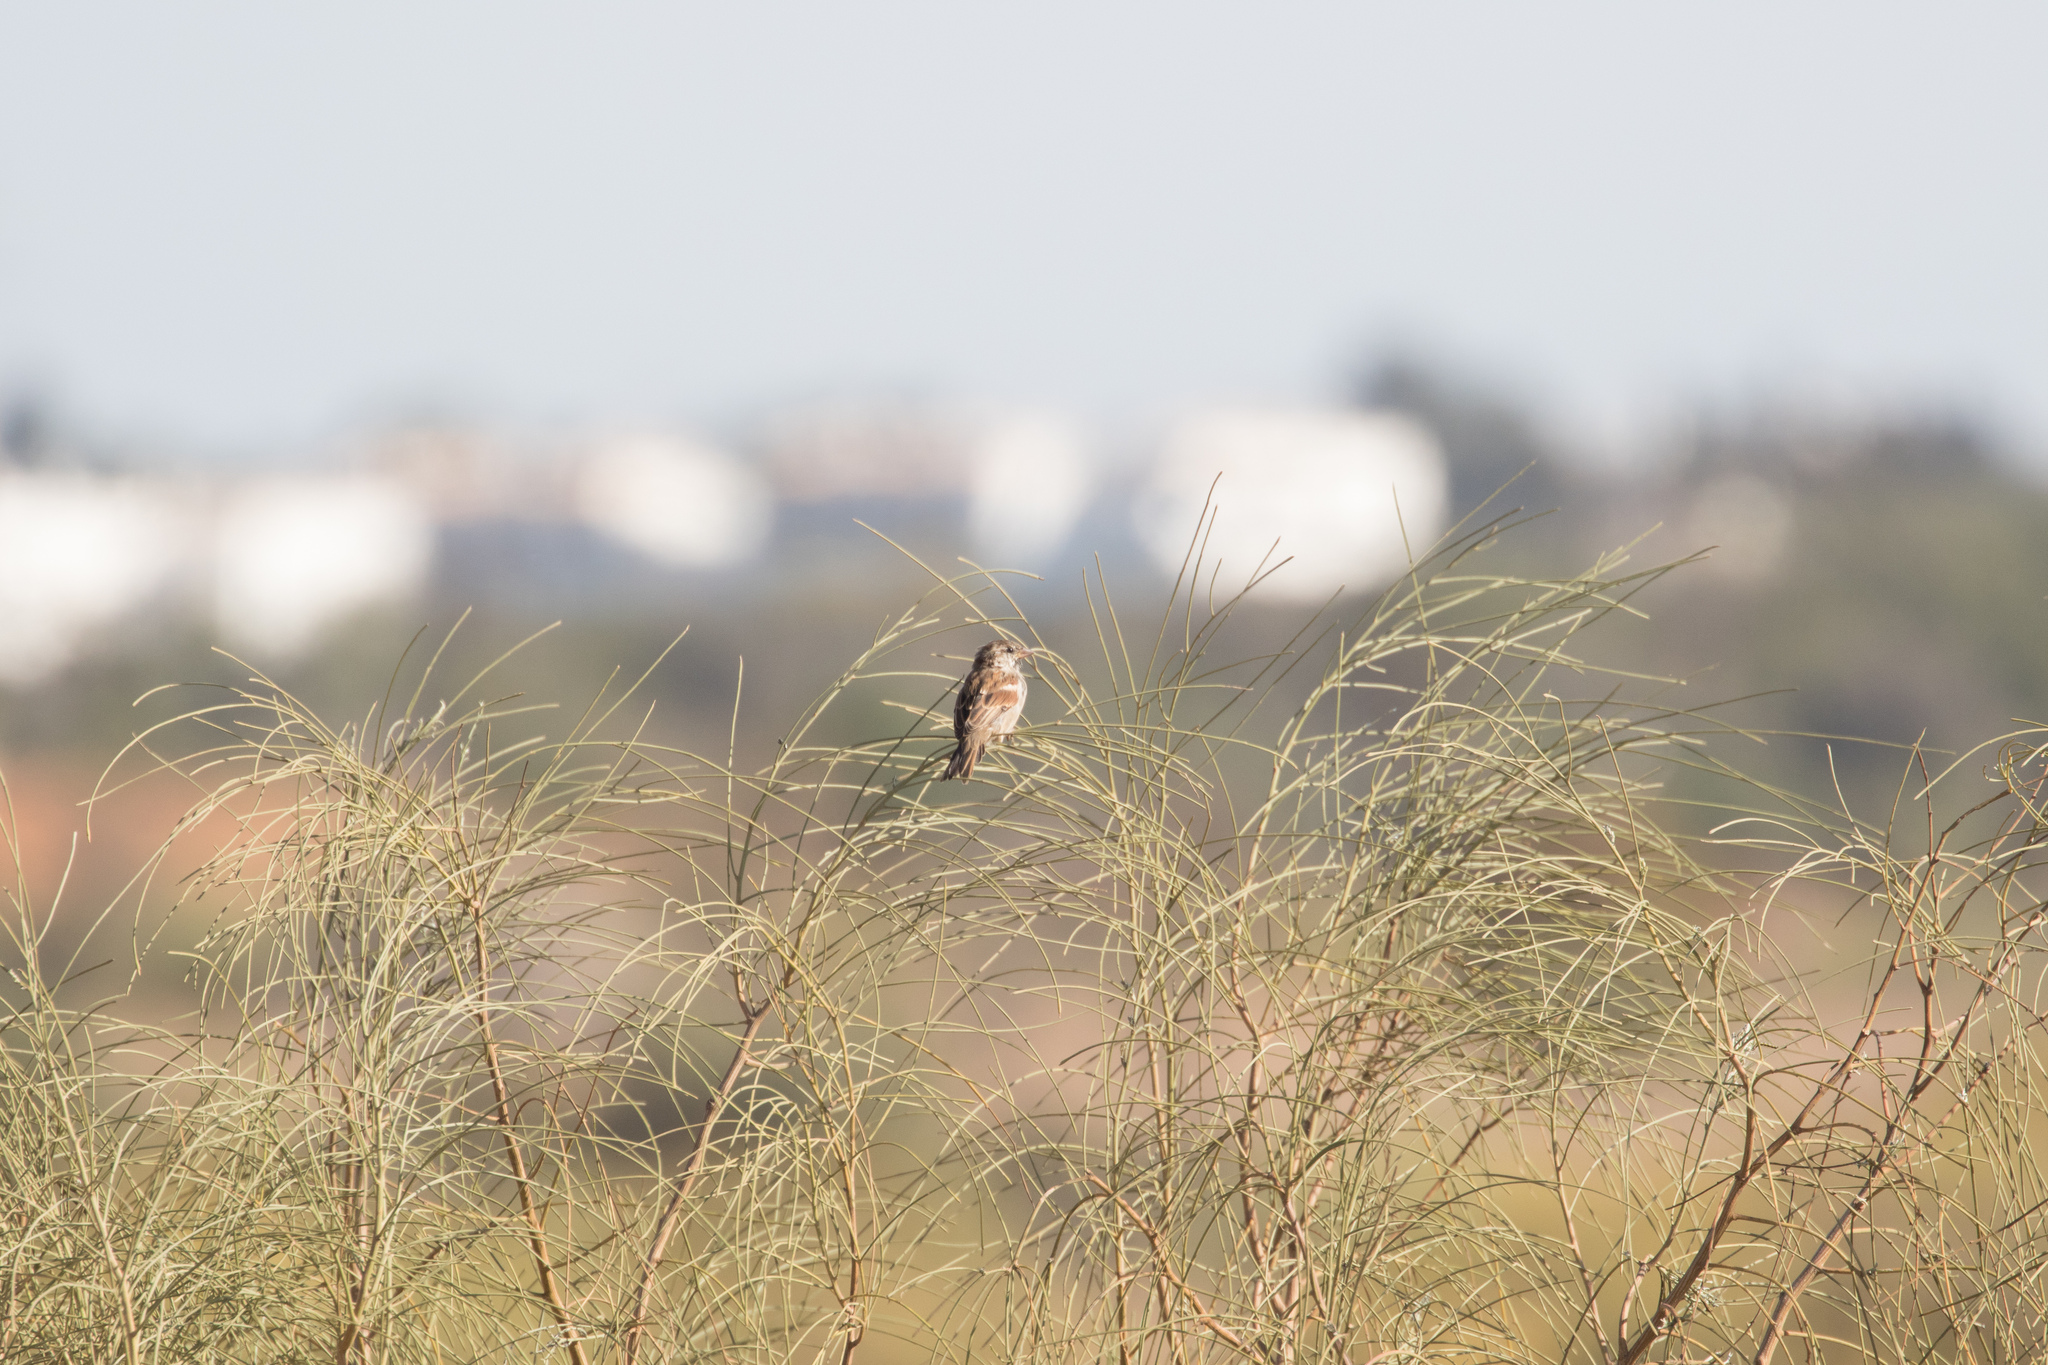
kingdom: Animalia
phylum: Chordata
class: Aves
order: Passeriformes
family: Passeridae
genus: Passer
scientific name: Passer domesticus
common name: House sparrow
